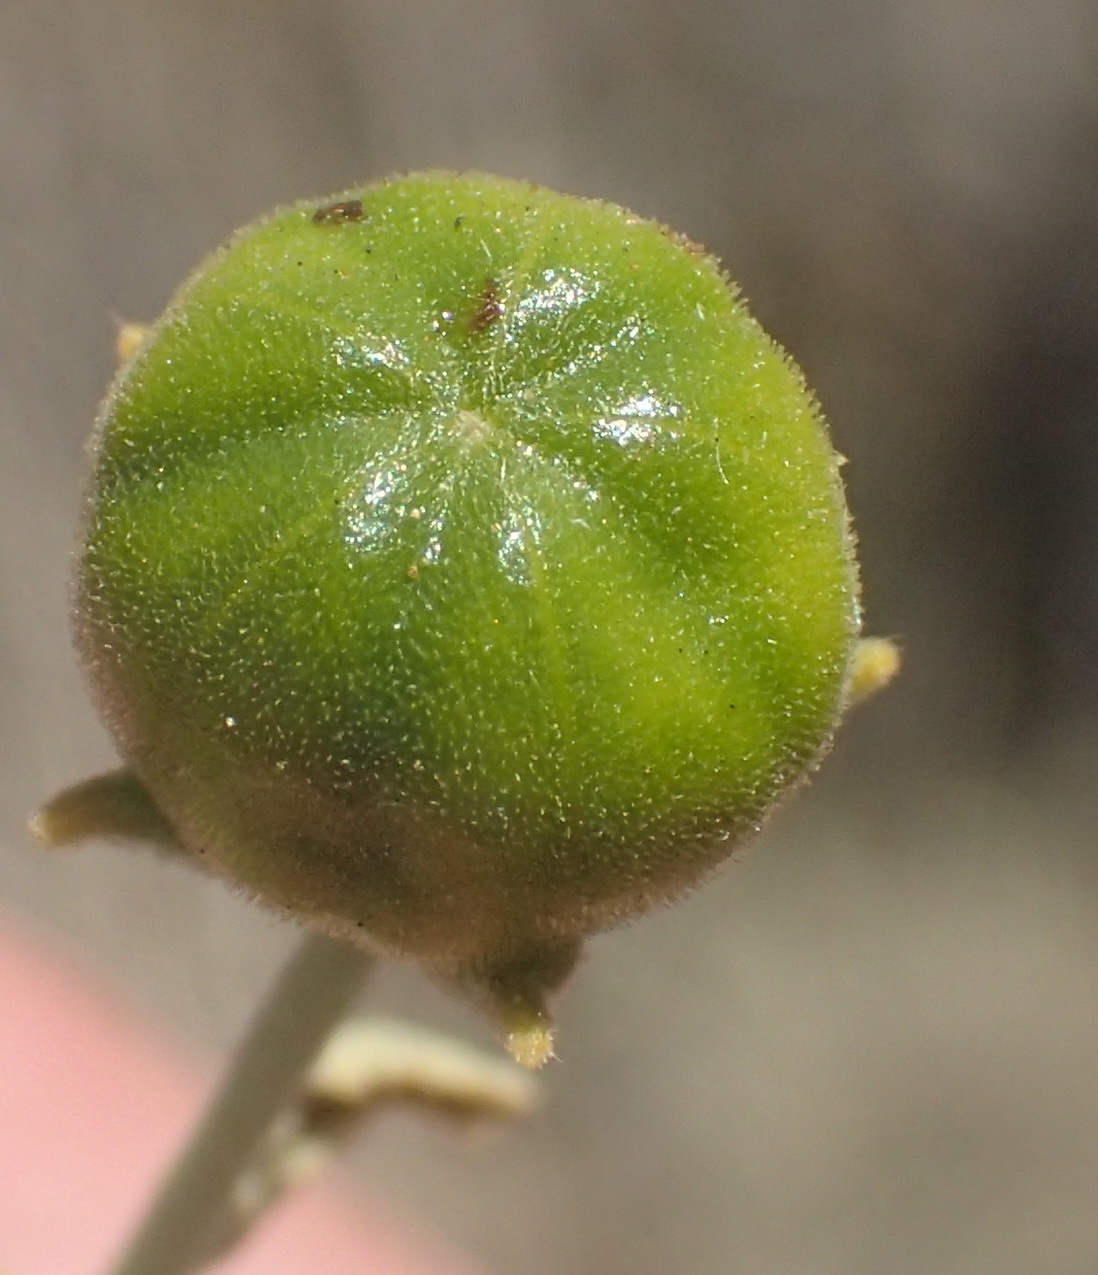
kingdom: Plantae
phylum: Tracheophyta
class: Magnoliopsida
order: Malvales
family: Malvaceae
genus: Hermannia
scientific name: Hermannia minutiflora
